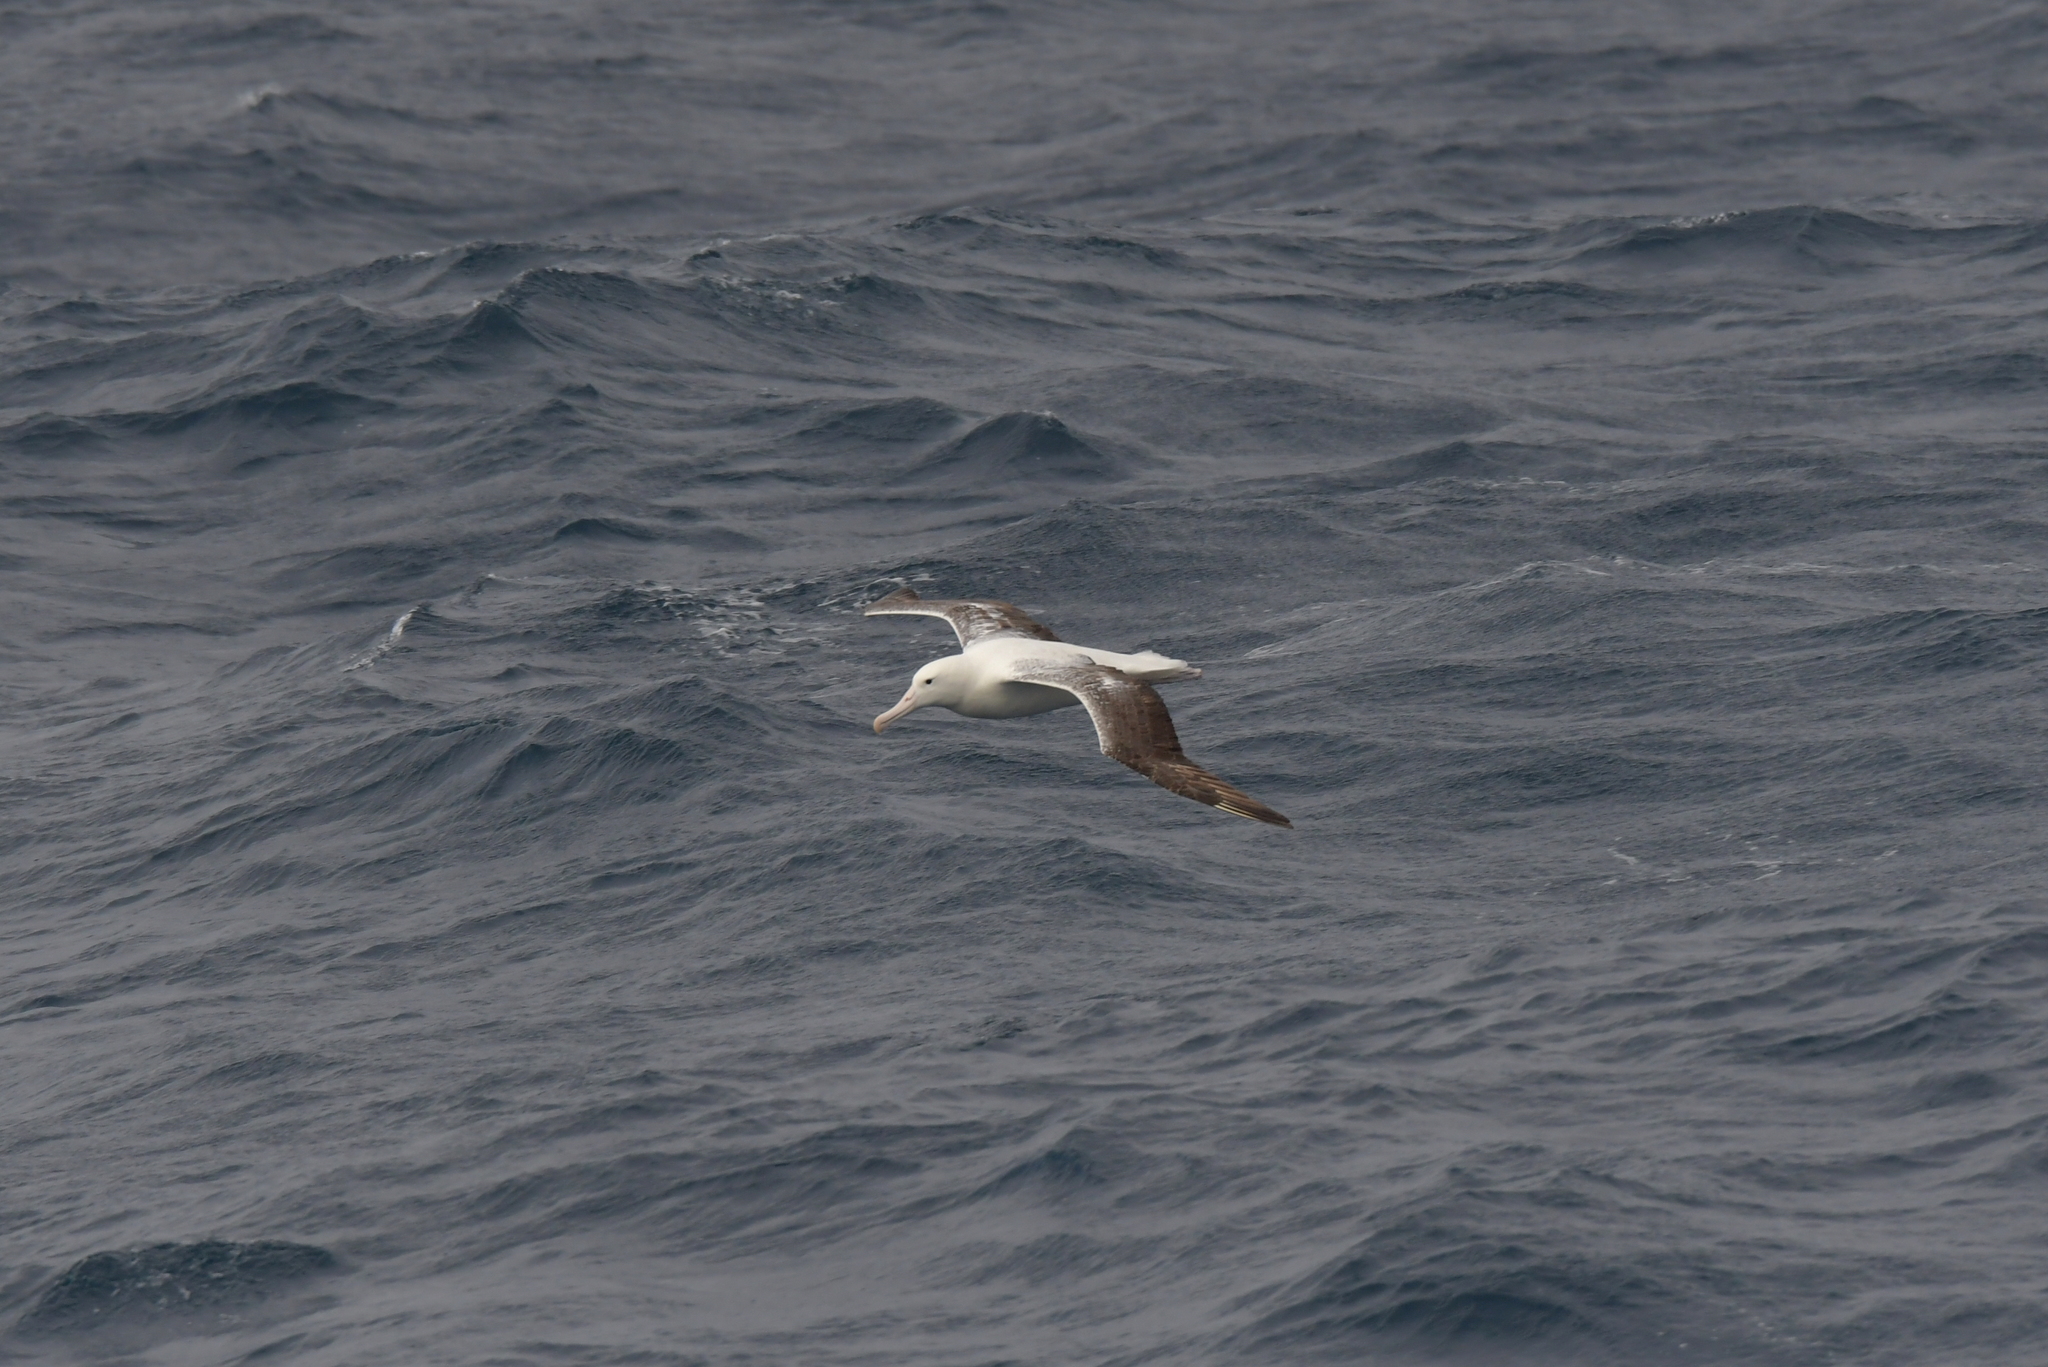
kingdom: Animalia
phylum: Chordata
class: Aves
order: Procellariiformes
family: Diomedeidae
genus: Diomedea
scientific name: Diomedea epomophora
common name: Southern royal albatross
